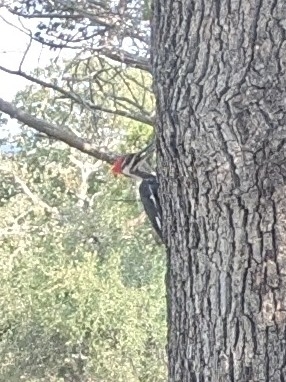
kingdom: Animalia
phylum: Chordata
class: Aves
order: Piciformes
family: Picidae
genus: Dryocopus
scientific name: Dryocopus pileatus
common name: Pileated woodpecker
